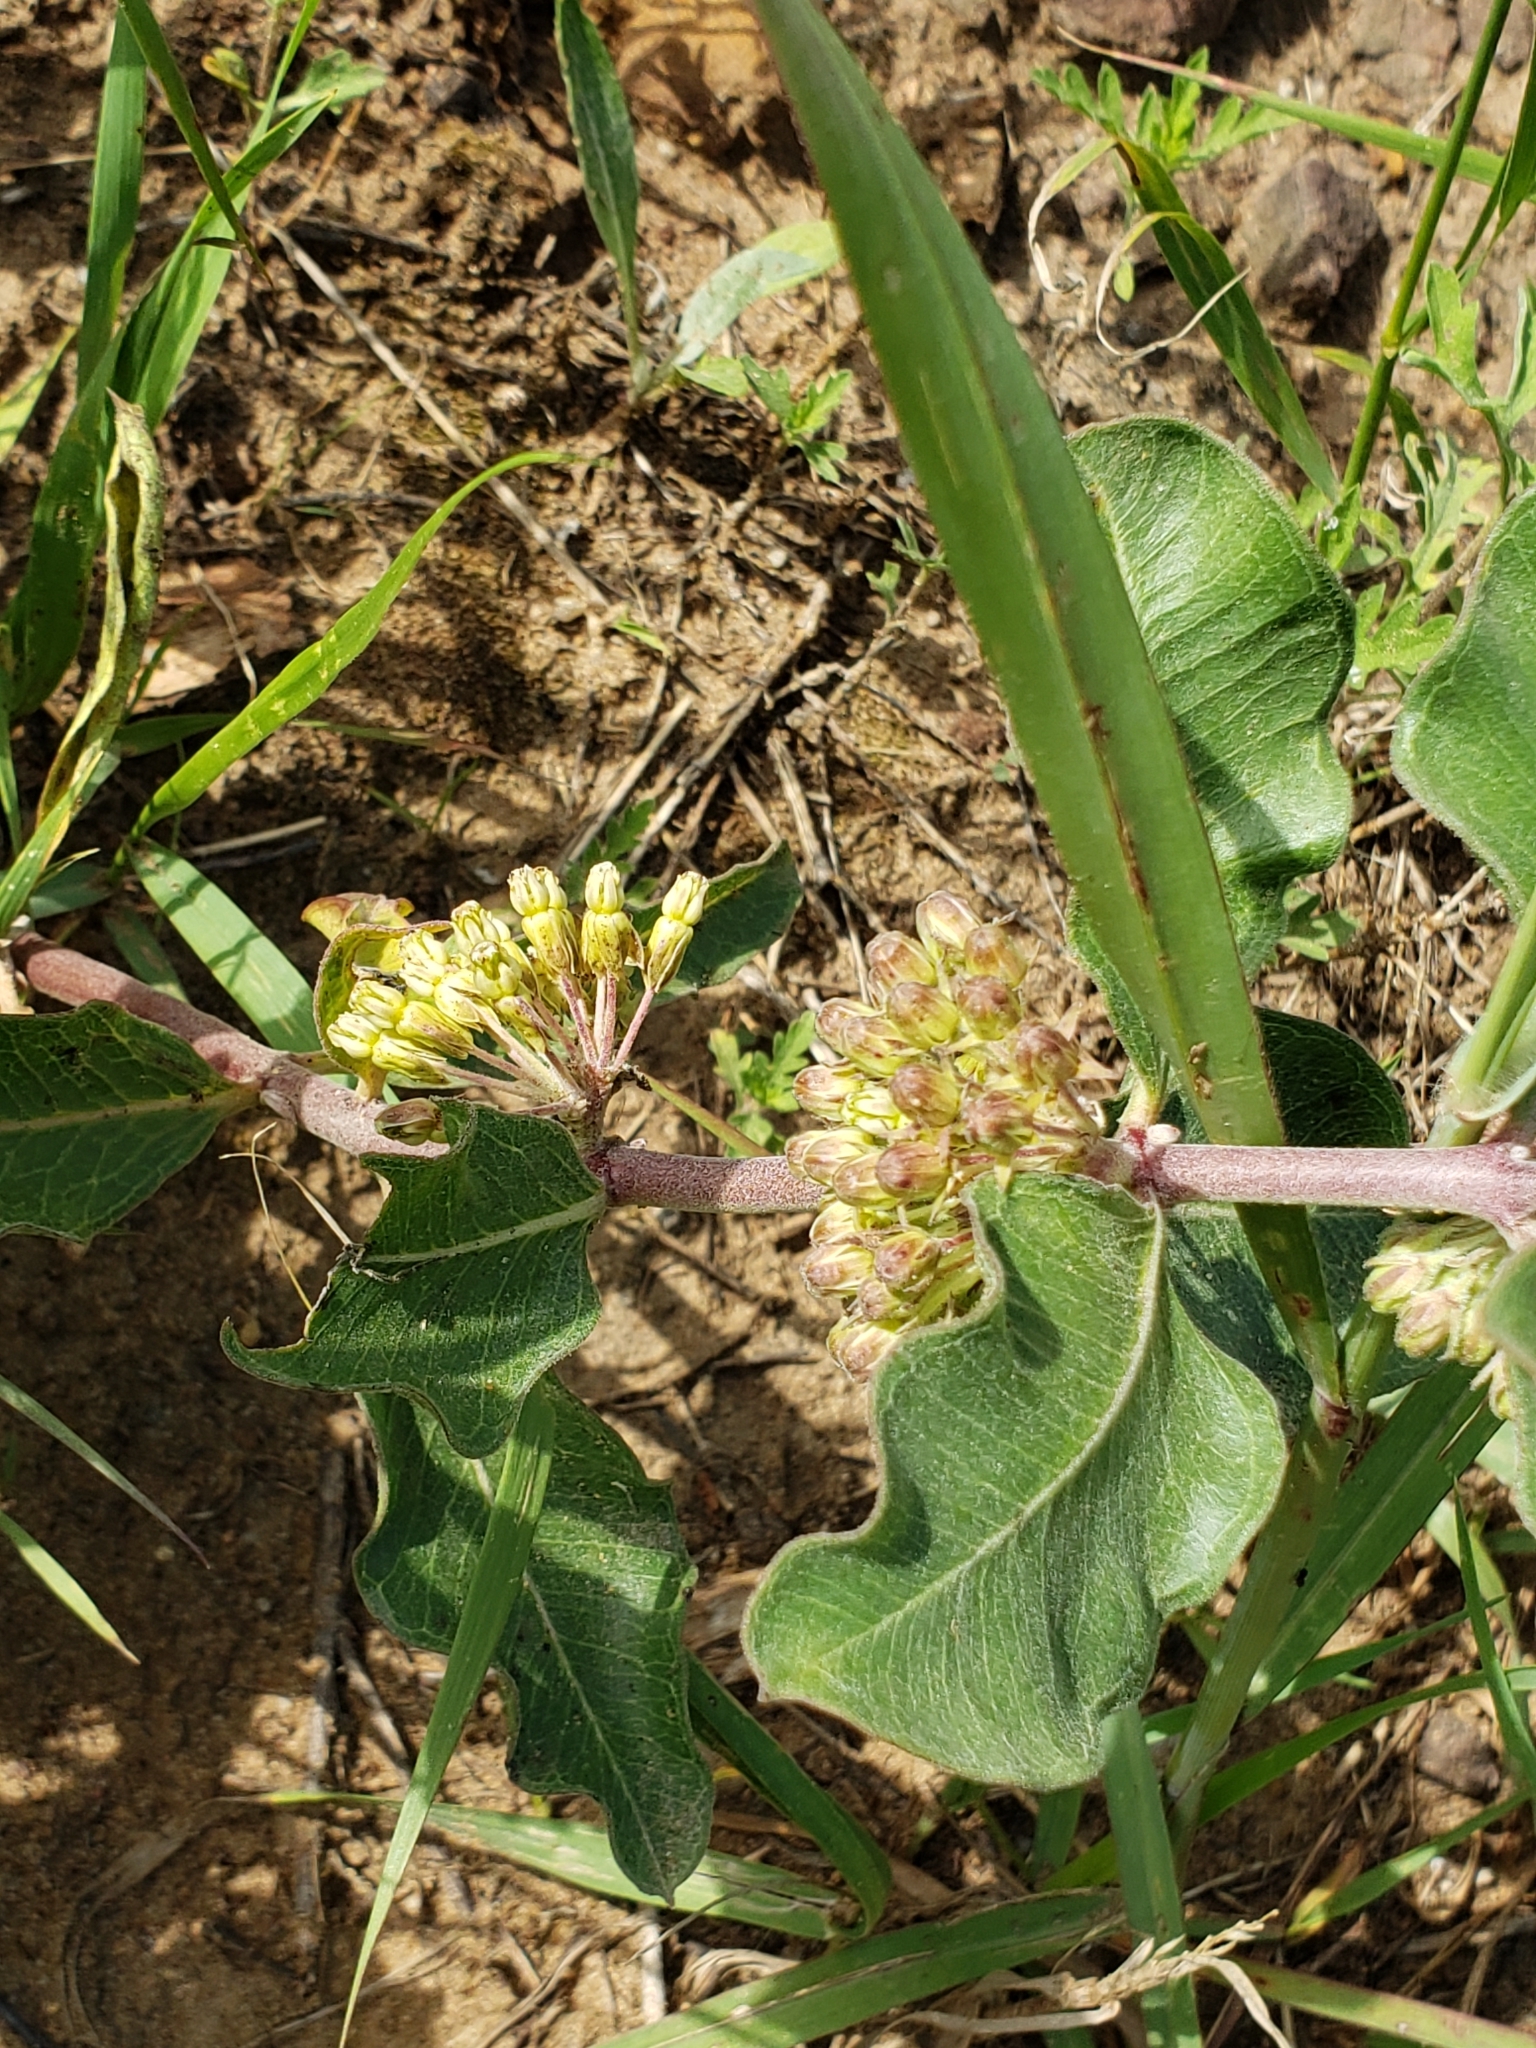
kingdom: Plantae
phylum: Tracheophyta
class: Magnoliopsida
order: Gentianales
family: Apocynaceae
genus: Asclepias
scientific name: Asclepias viridiflora
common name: Green comet milkweed
